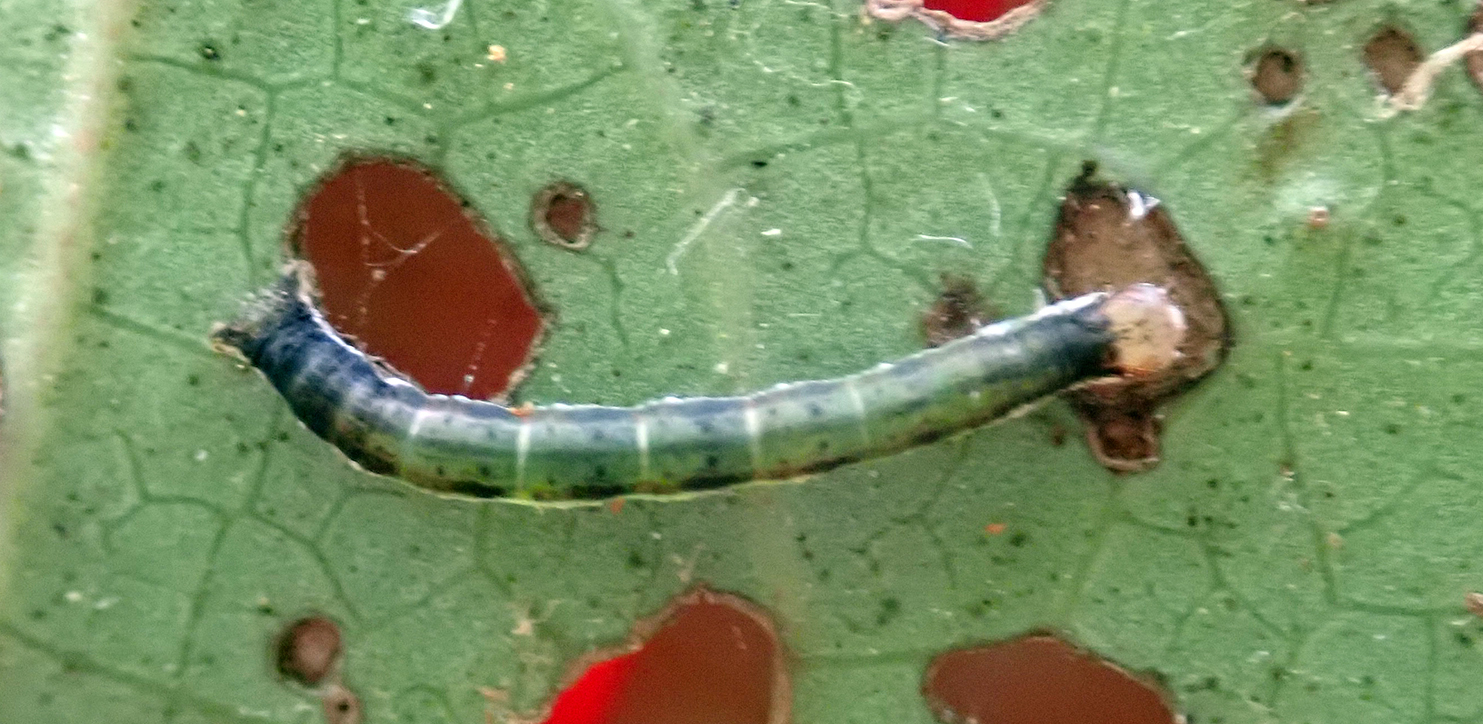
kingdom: Animalia
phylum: Arthropoda
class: Insecta
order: Lepidoptera
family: Geometridae
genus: Cleora
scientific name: Cleora scriptaria
